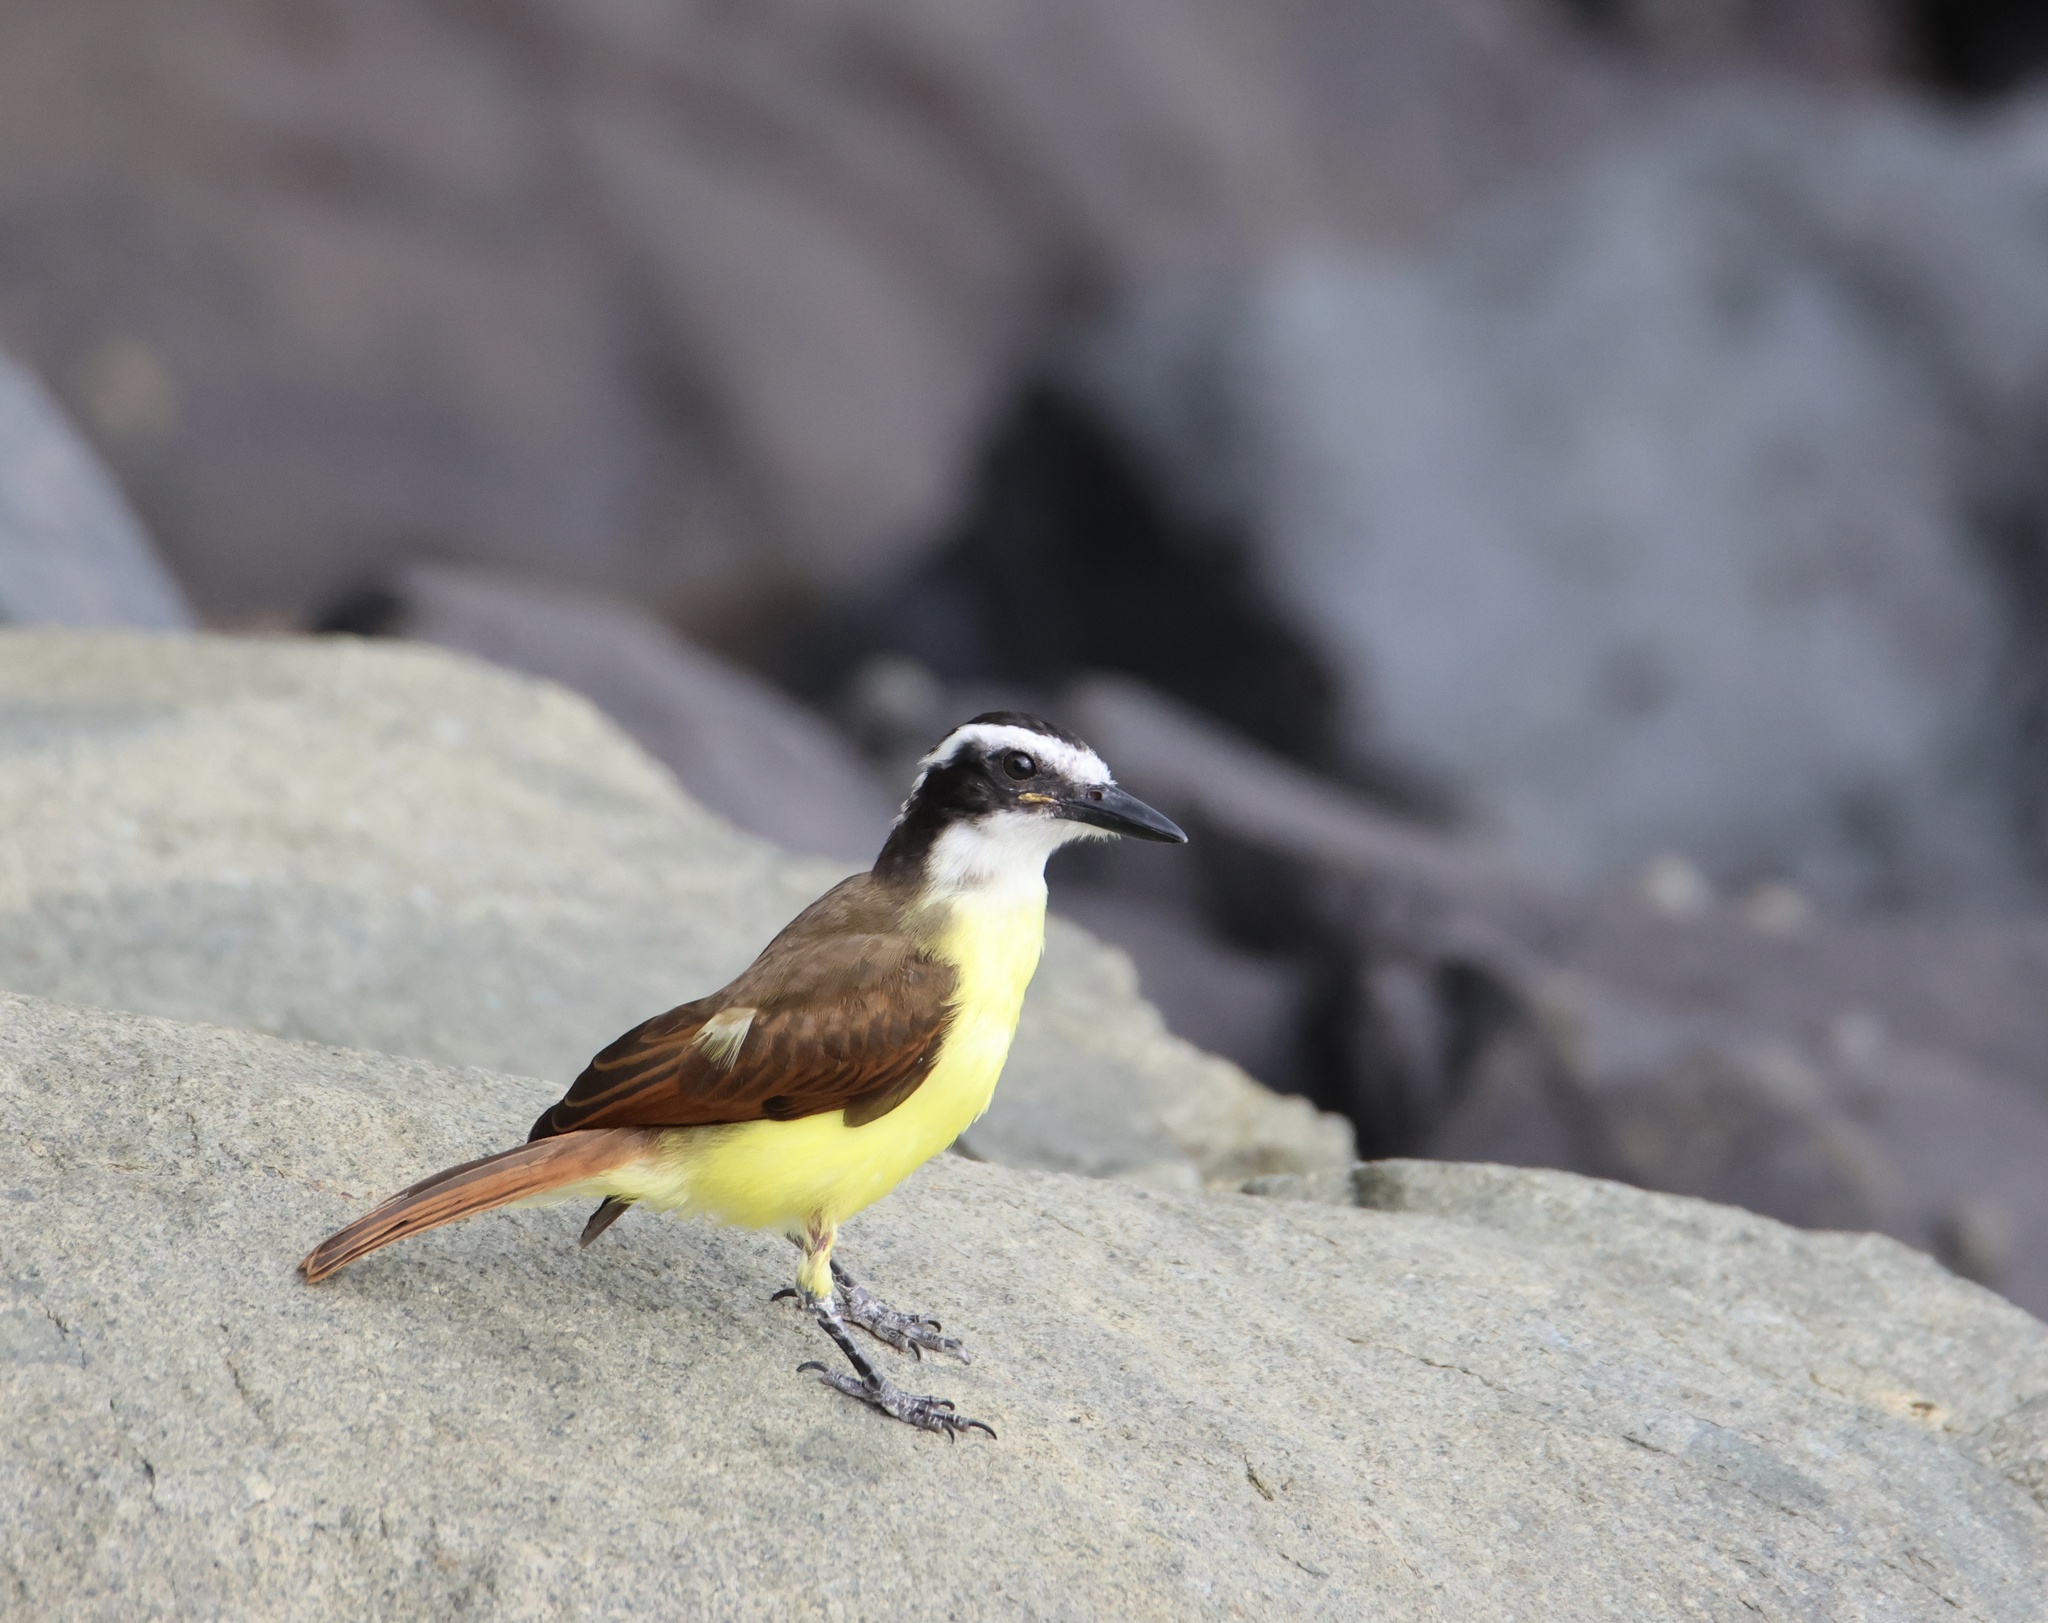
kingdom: Animalia
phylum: Chordata
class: Aves
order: Passeriformes
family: Tyrannidae
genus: Pitangus
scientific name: Pitangus sulphuratus
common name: Great kiskadee
